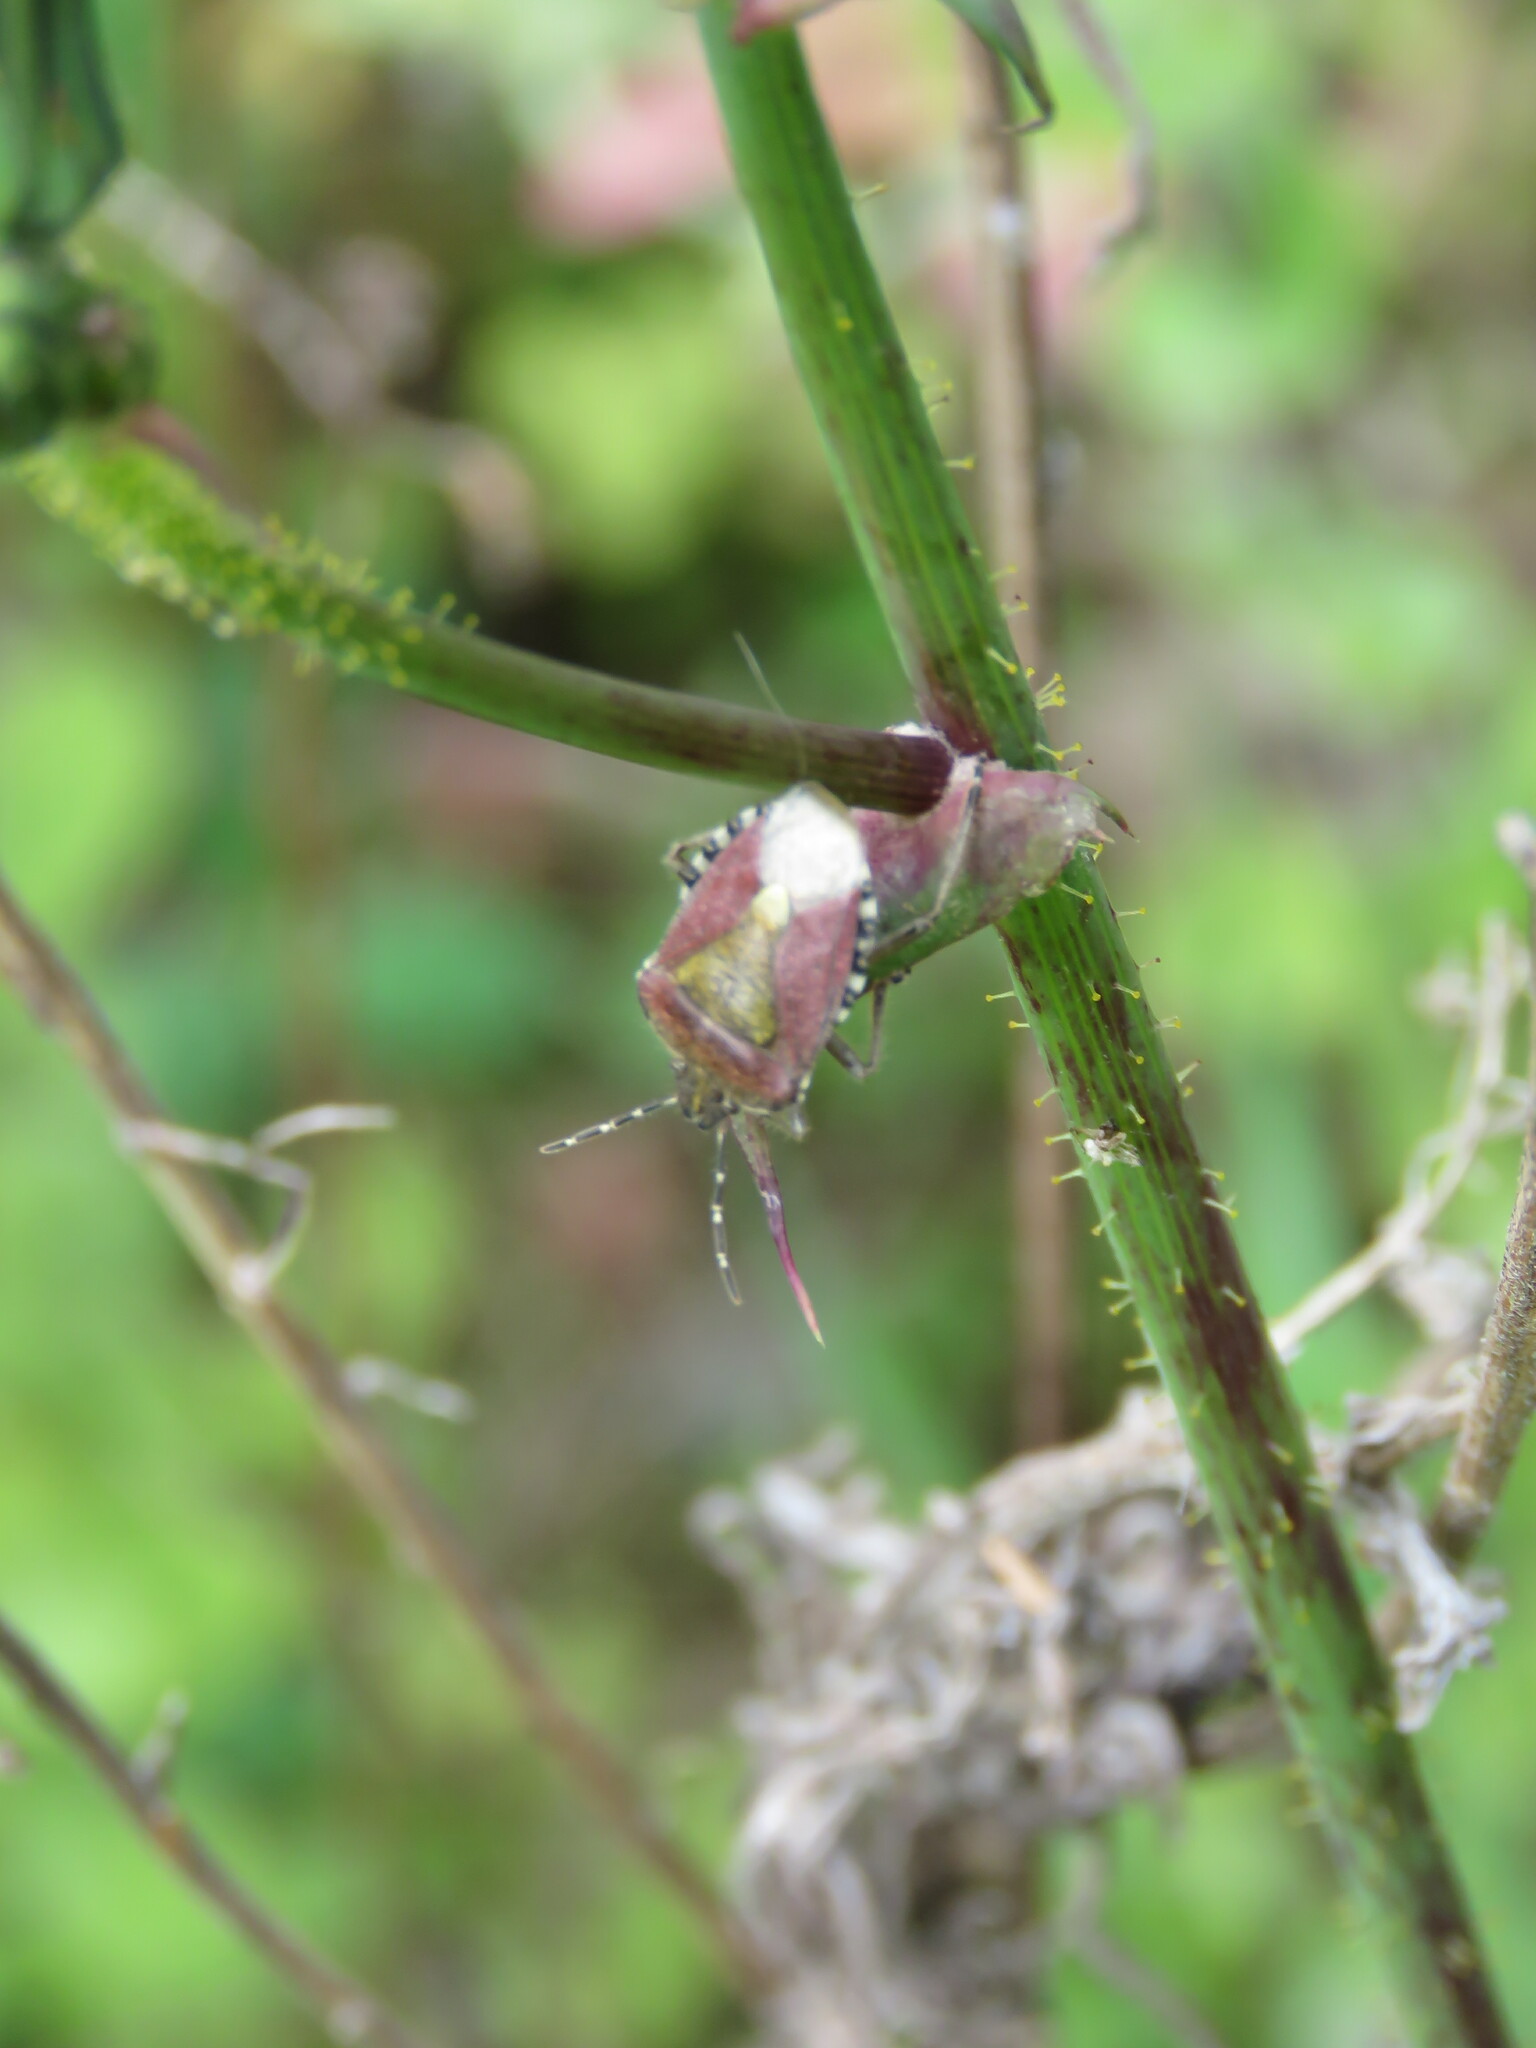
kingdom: Animalia
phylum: Arthropoda
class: Insecta
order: Hemiptera
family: Pentatomidae
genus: Dolycoris
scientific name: Dolycoris baccarum
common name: Sloe bug
